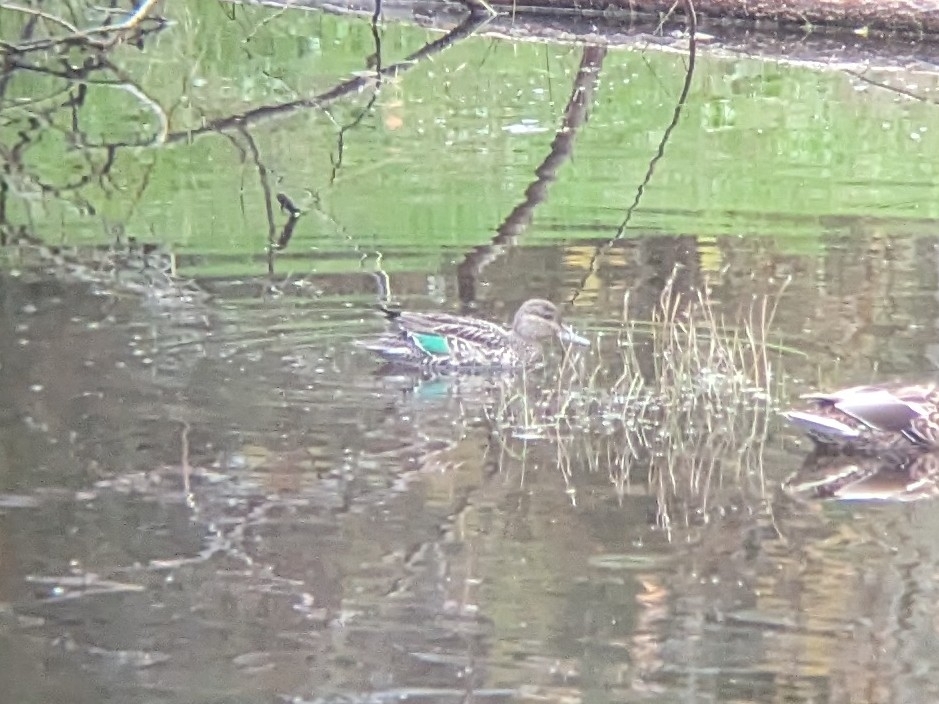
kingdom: Animalia
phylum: Chordata
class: Aves
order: Anseriformes
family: Anatidae
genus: Anas
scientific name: Anas crecca
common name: Eurasian teal
